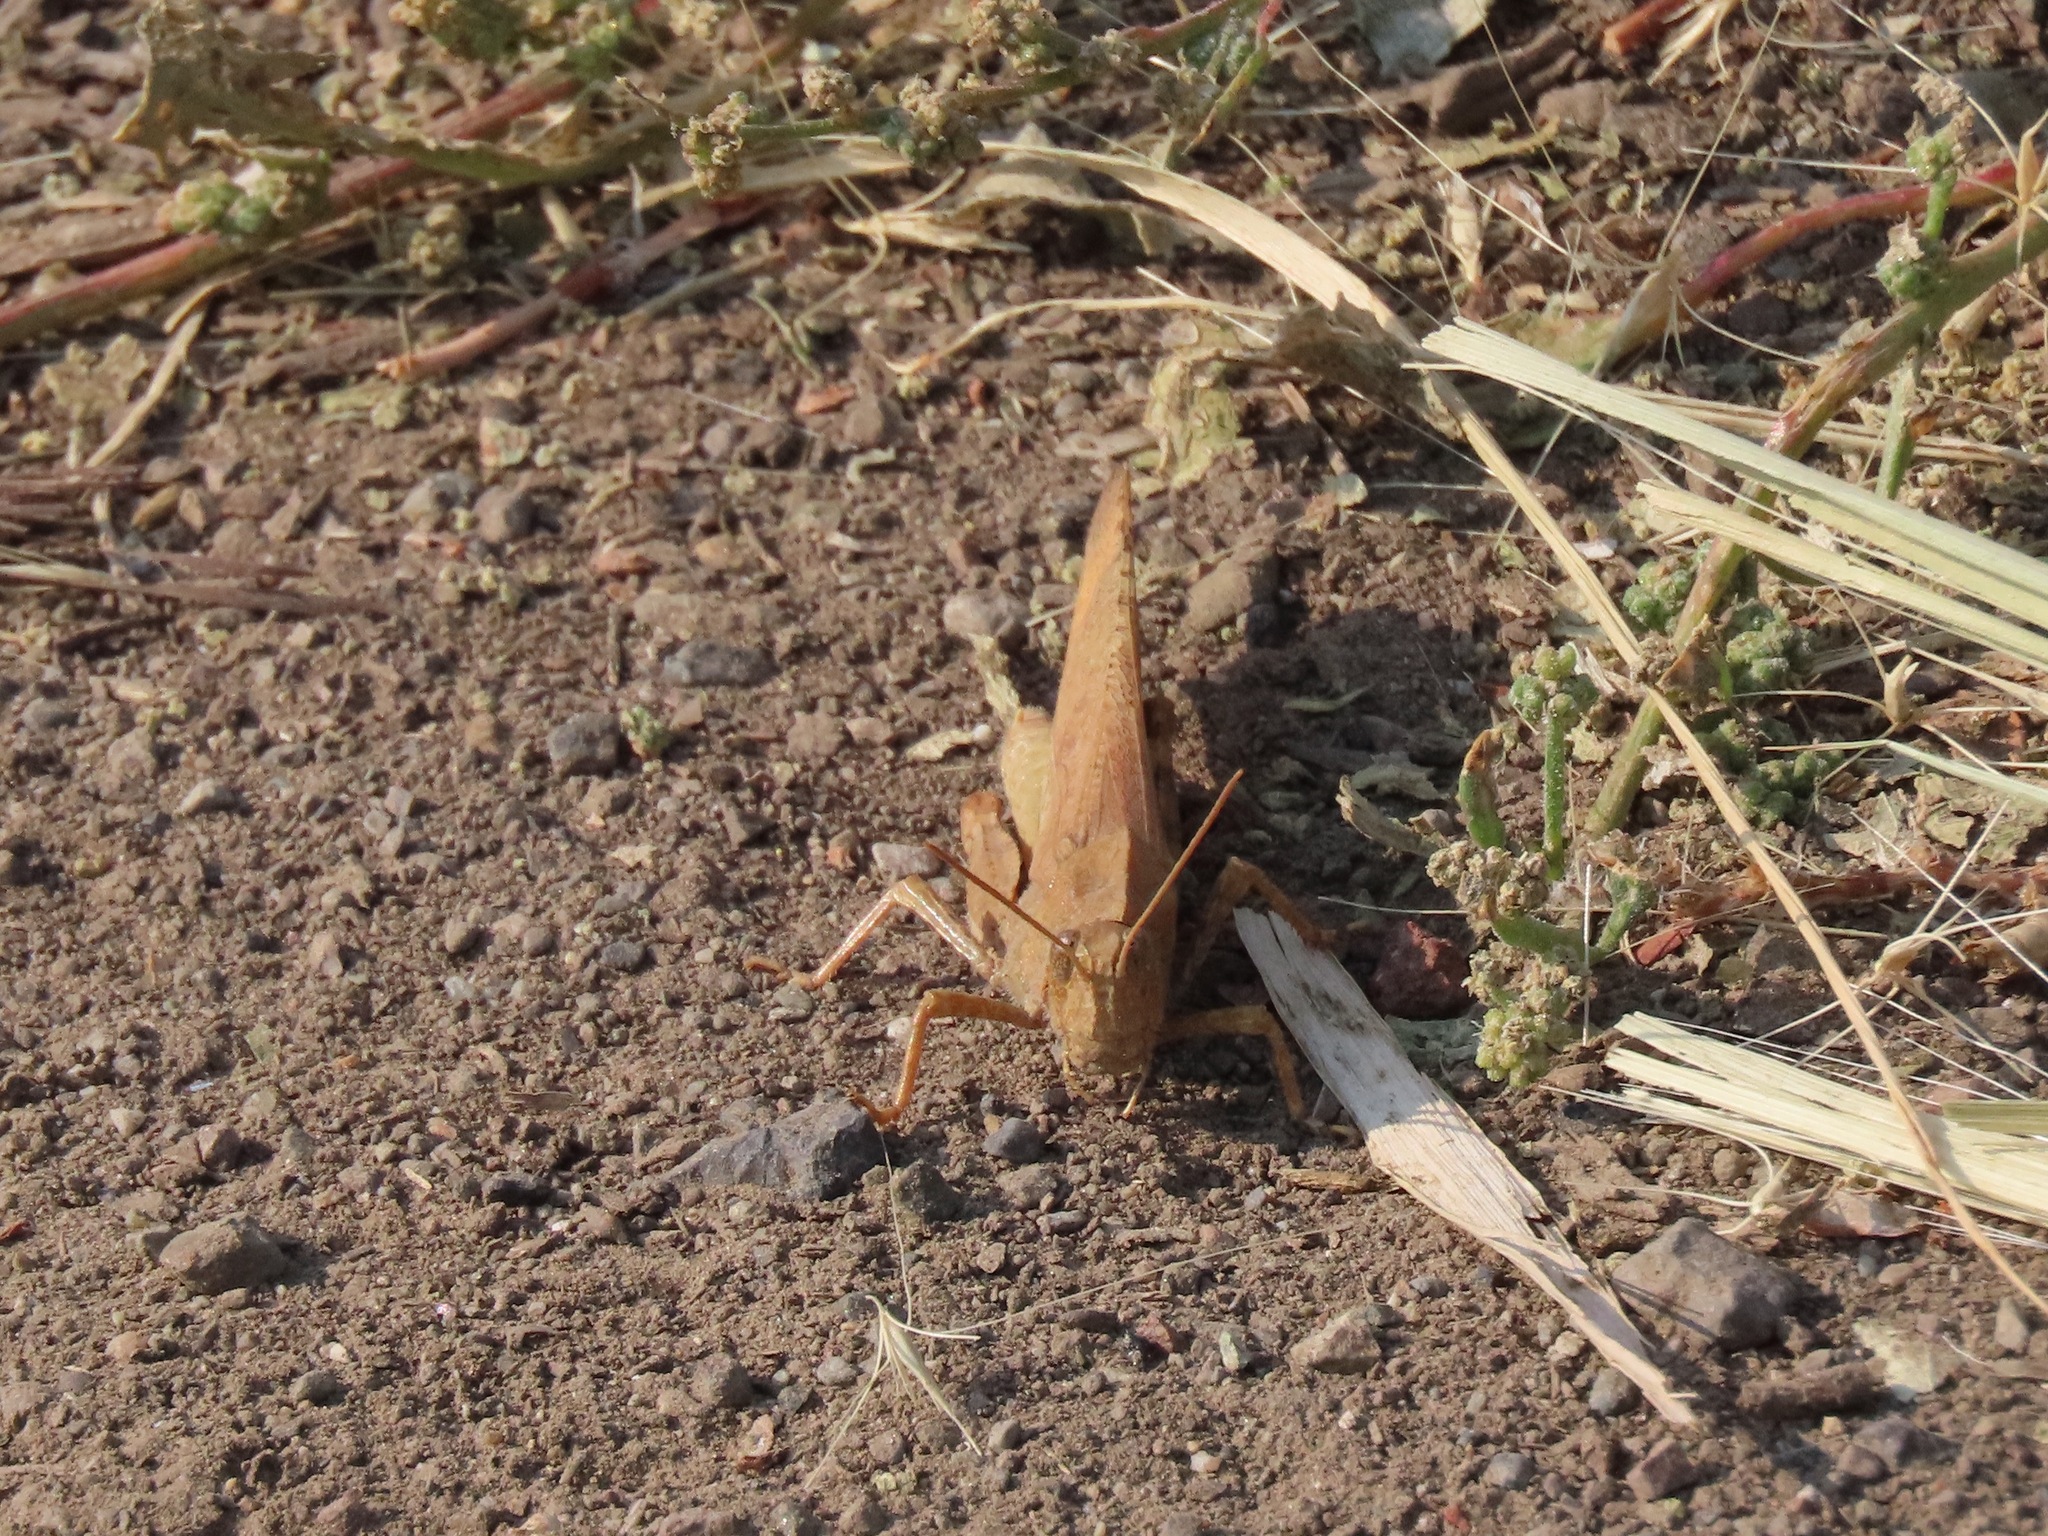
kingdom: Animalia
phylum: Arthropoda
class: Insecta
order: Orthoptera
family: Acrididae
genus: Dissosteira
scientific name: Dissosteira carolina
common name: Carolina grasshopper
